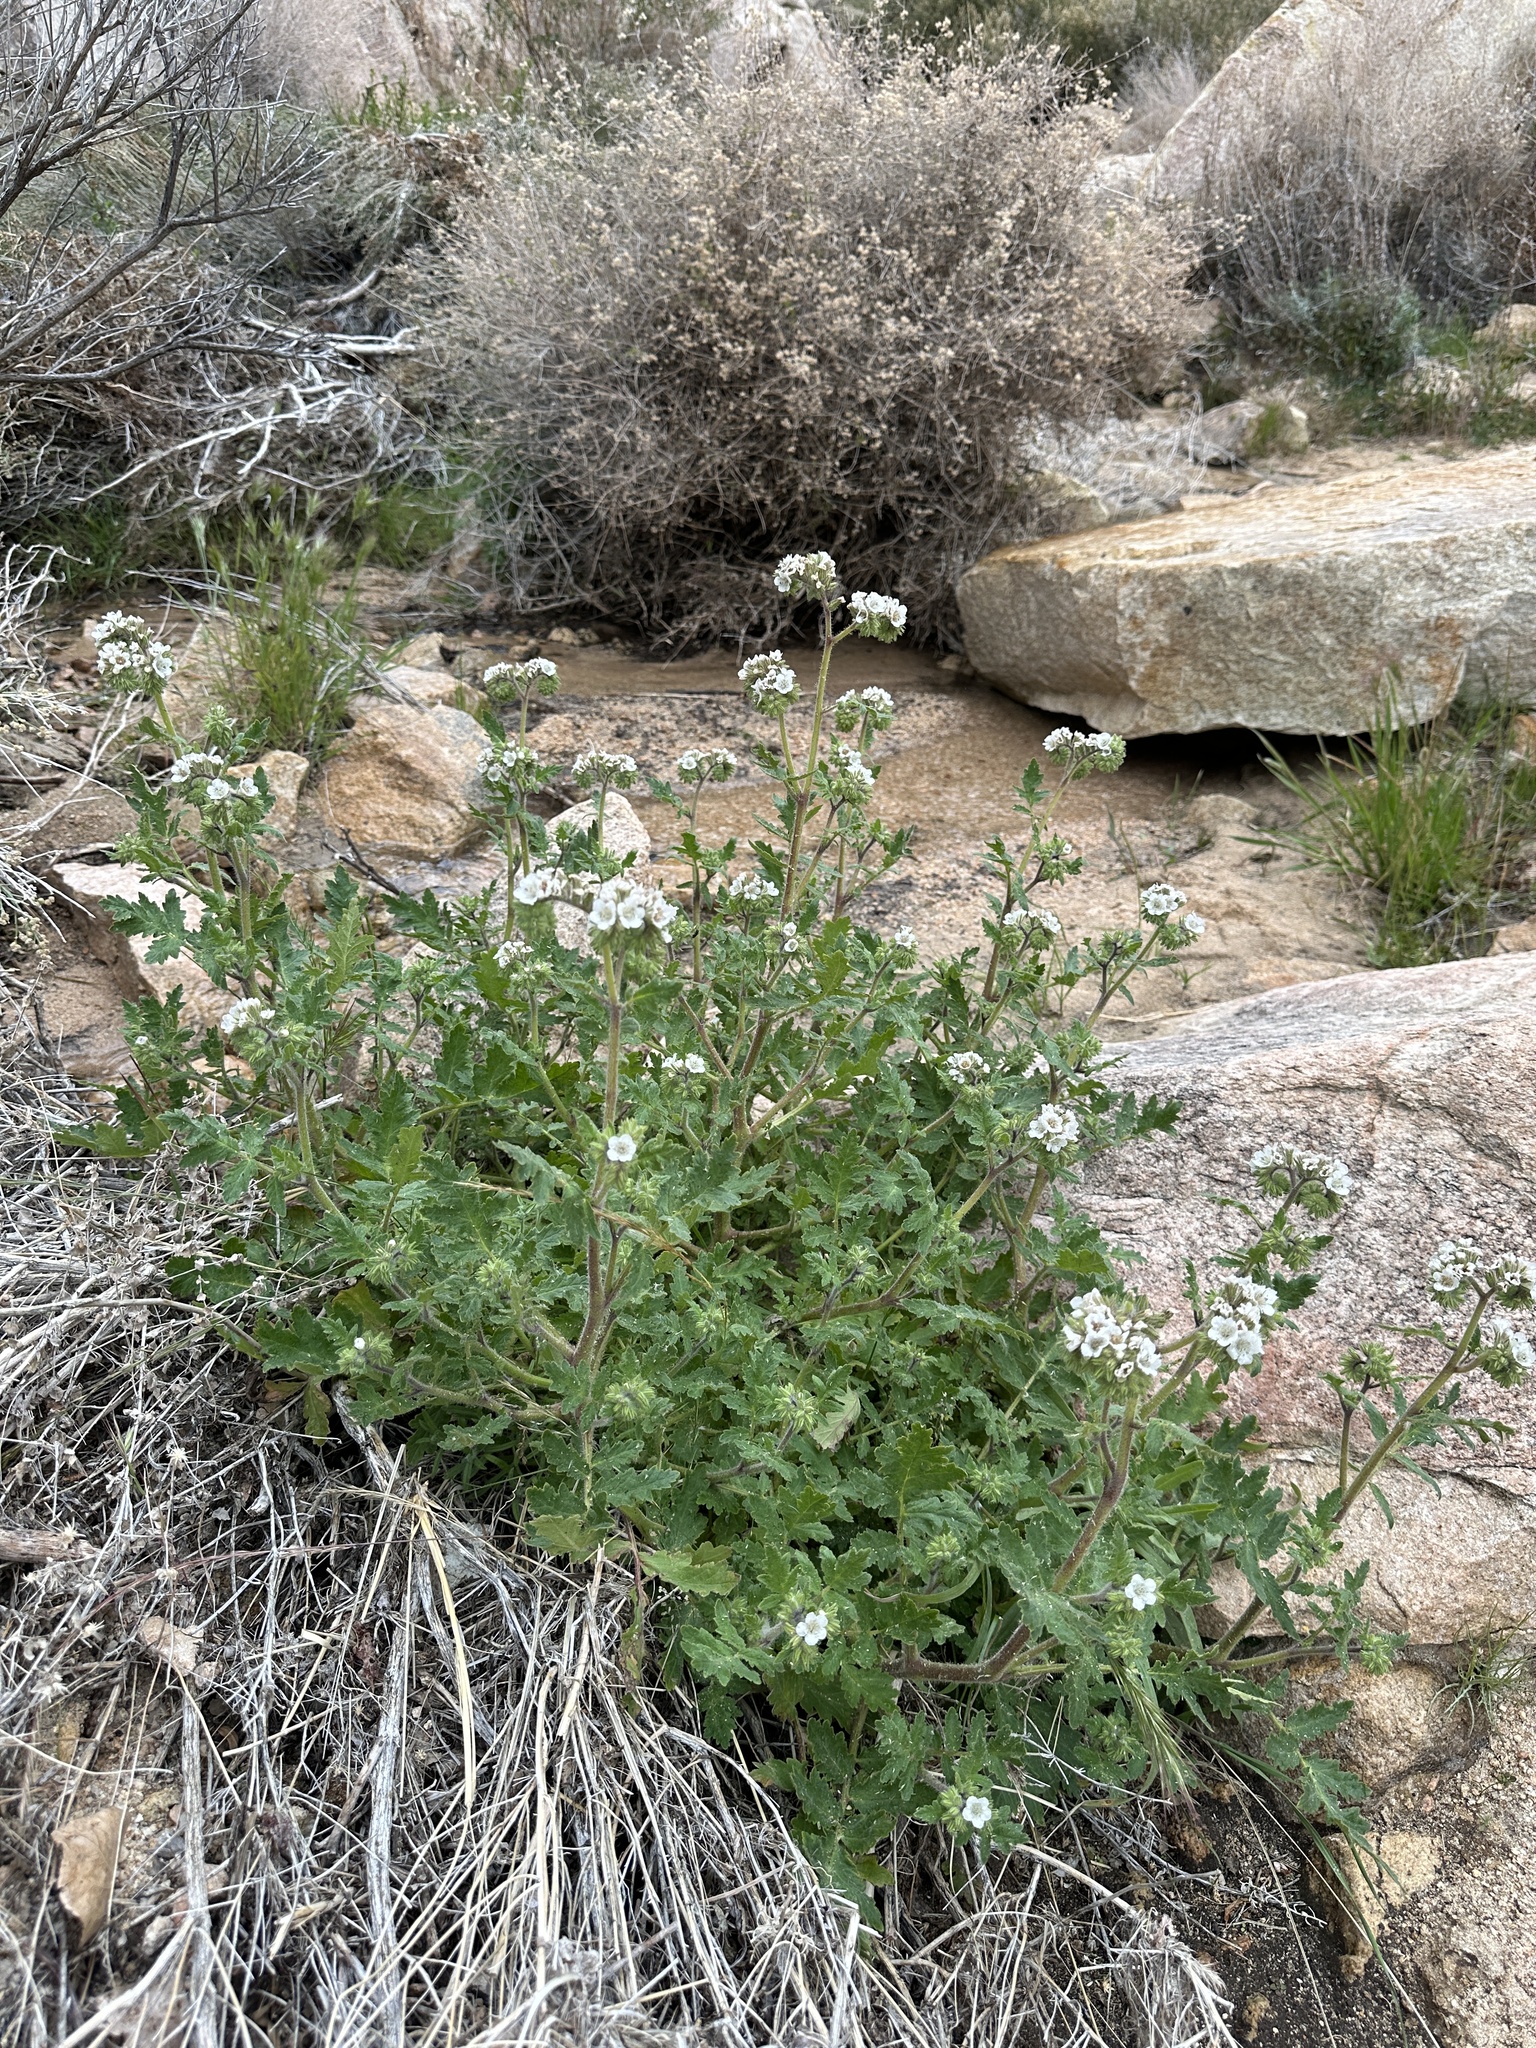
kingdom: Plantae
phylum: Tracheophyta
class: Magnoliopsida
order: Boraginales
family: Hydrophyllaceae
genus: Phacelia
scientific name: Phacelia cicutaria
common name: Caterpillar phacelia
